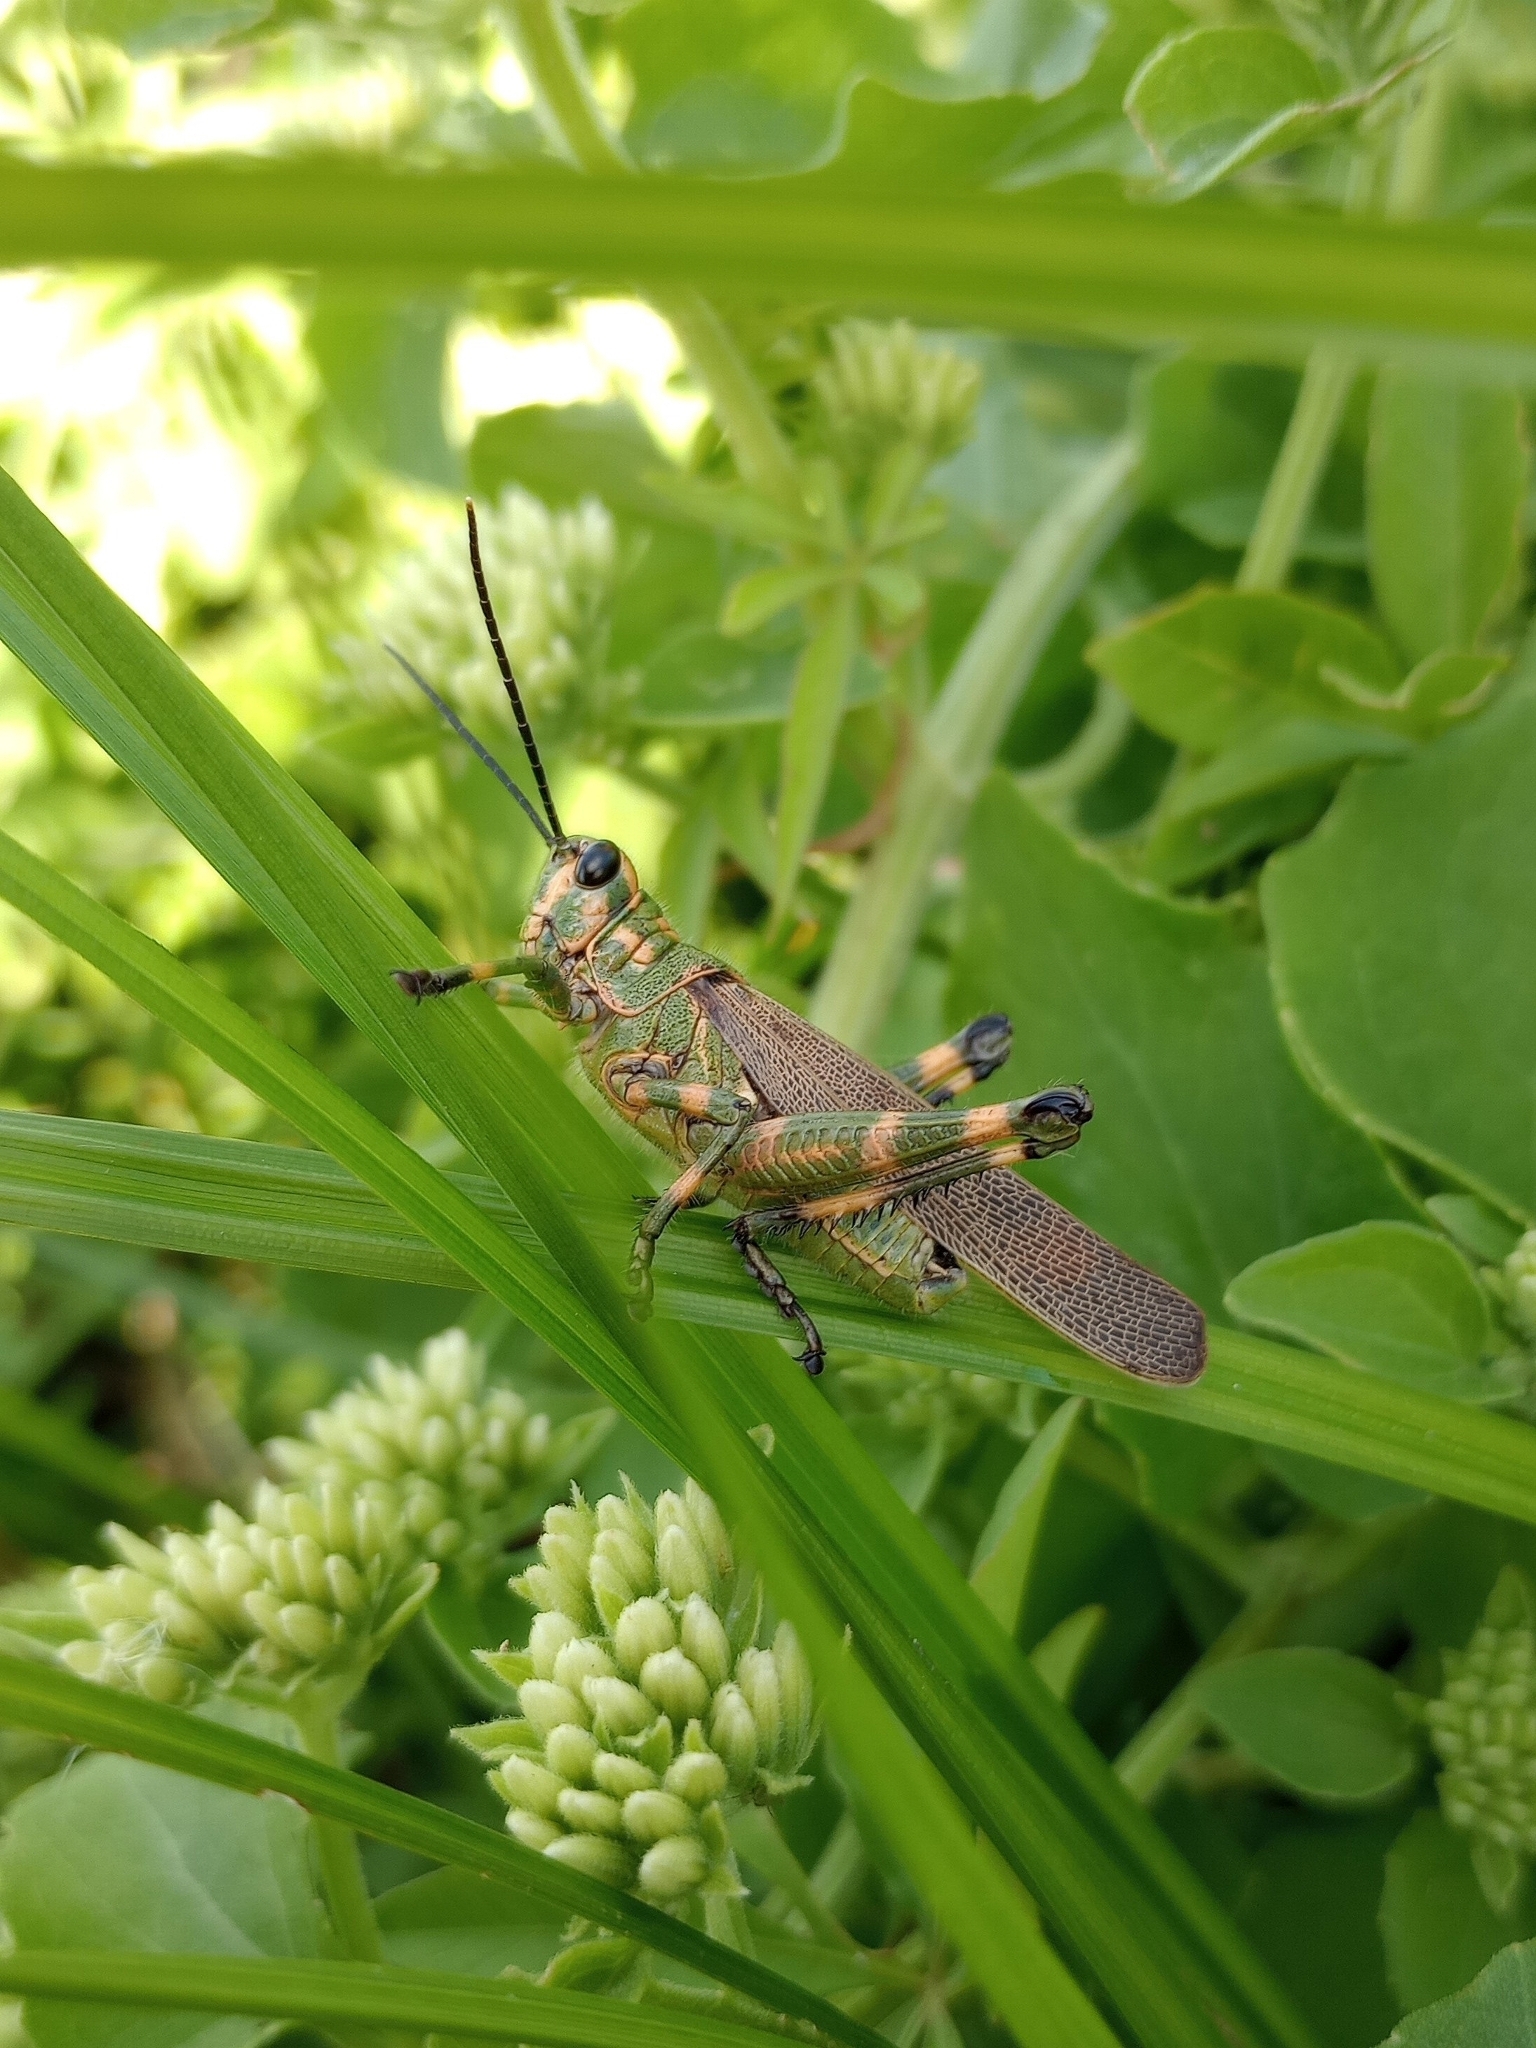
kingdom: Animalia
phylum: Arthropoda
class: Insecta
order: Orthoptera
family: Romaleidae
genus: Chromacris
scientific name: Chromacris speciosa
